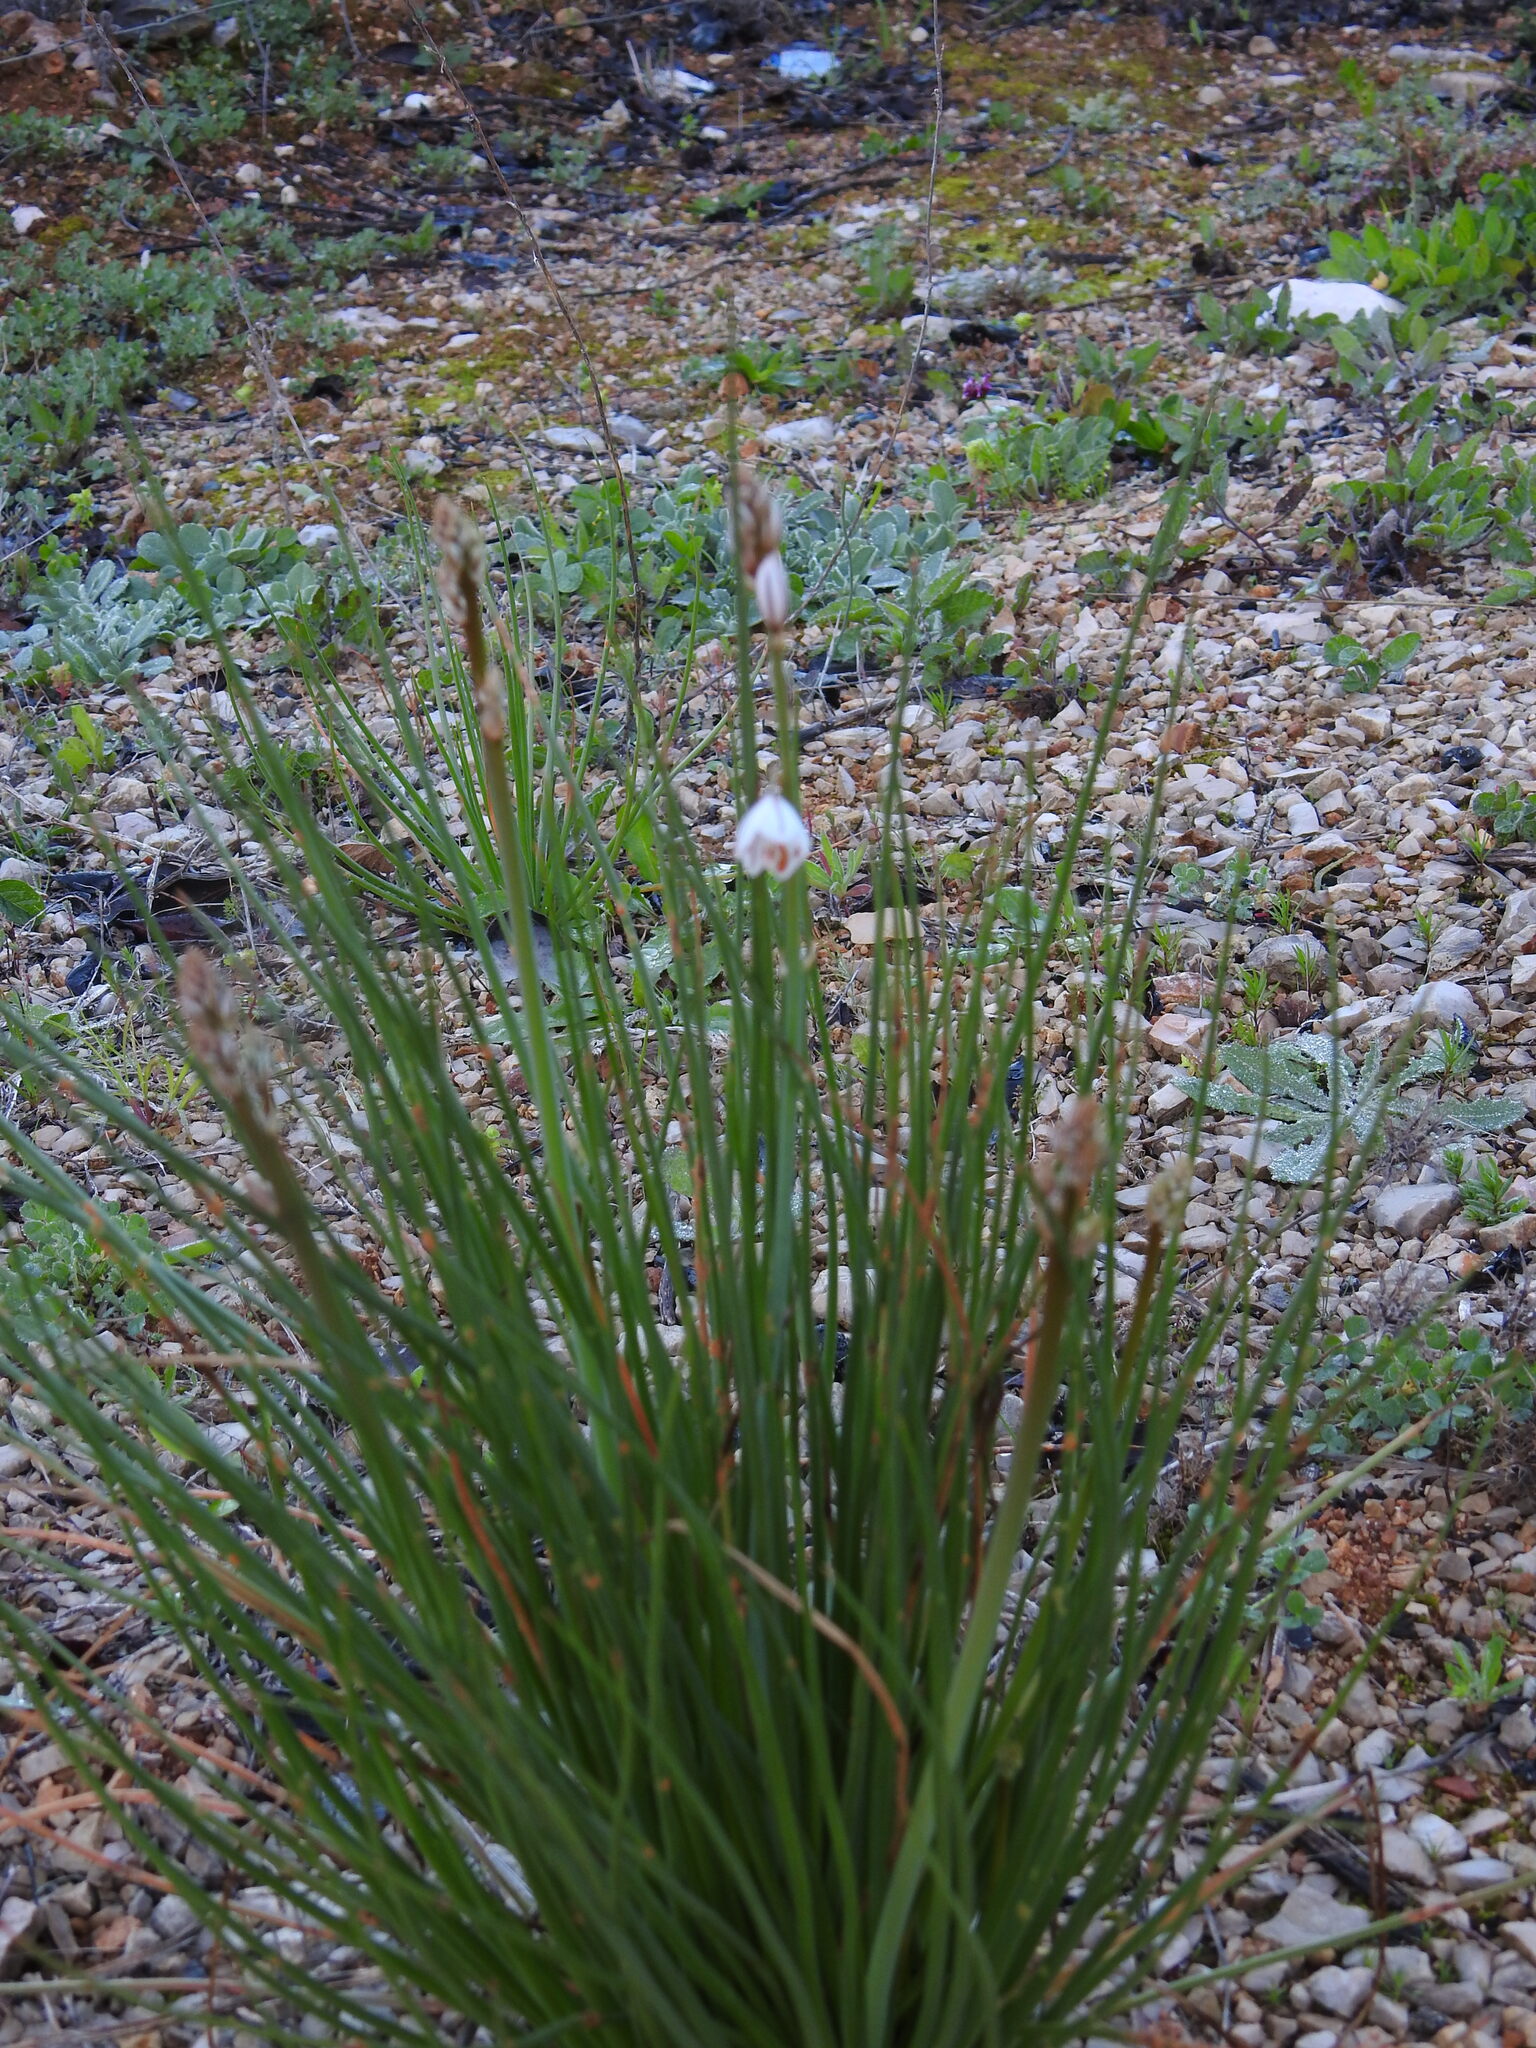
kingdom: Plantae
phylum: Tracheophyta
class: Liliopsida
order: Asparagales
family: Asphodelaceae
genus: Asphodelus
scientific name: Asphodelus fistulosus
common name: Onionweed
